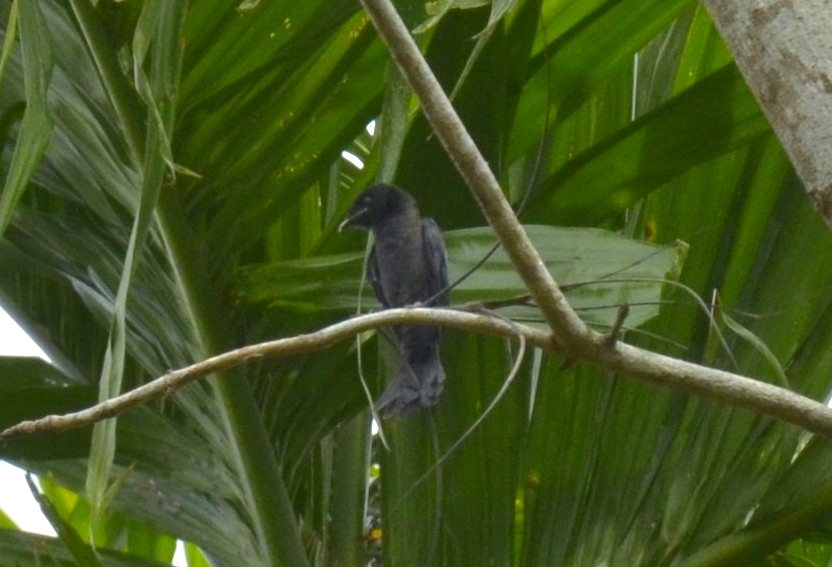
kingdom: Animalia
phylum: Chordata
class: Aves
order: Passeriformes
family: Dicruridae
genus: Dicrurus
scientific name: Dicrurus aeneus
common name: Bronzed drongo
